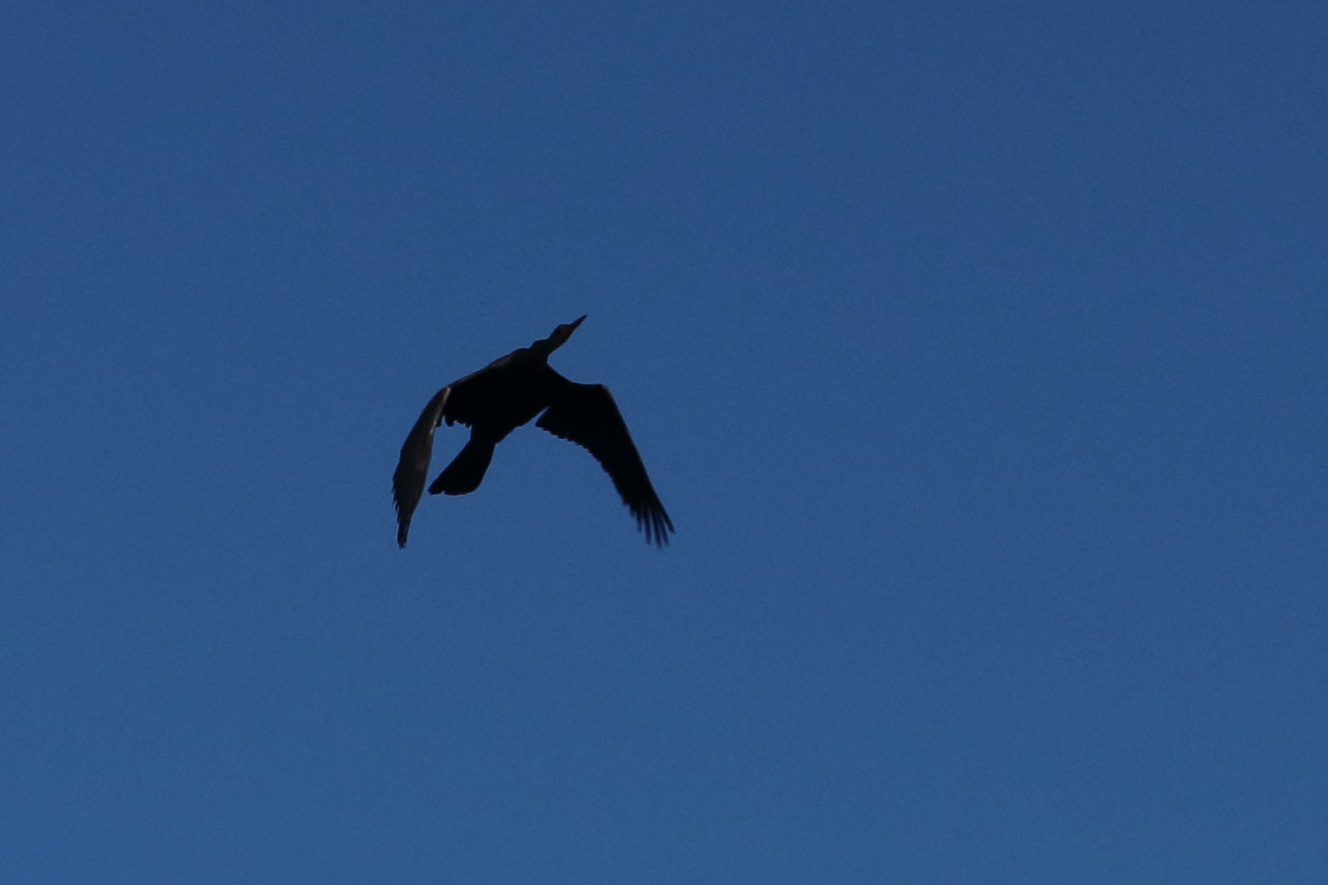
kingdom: Animalia
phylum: Chordata
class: Aves
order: Suliformes
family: Anhingidae
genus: Anhinga
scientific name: Anhinga anhinga
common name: Anhinga
